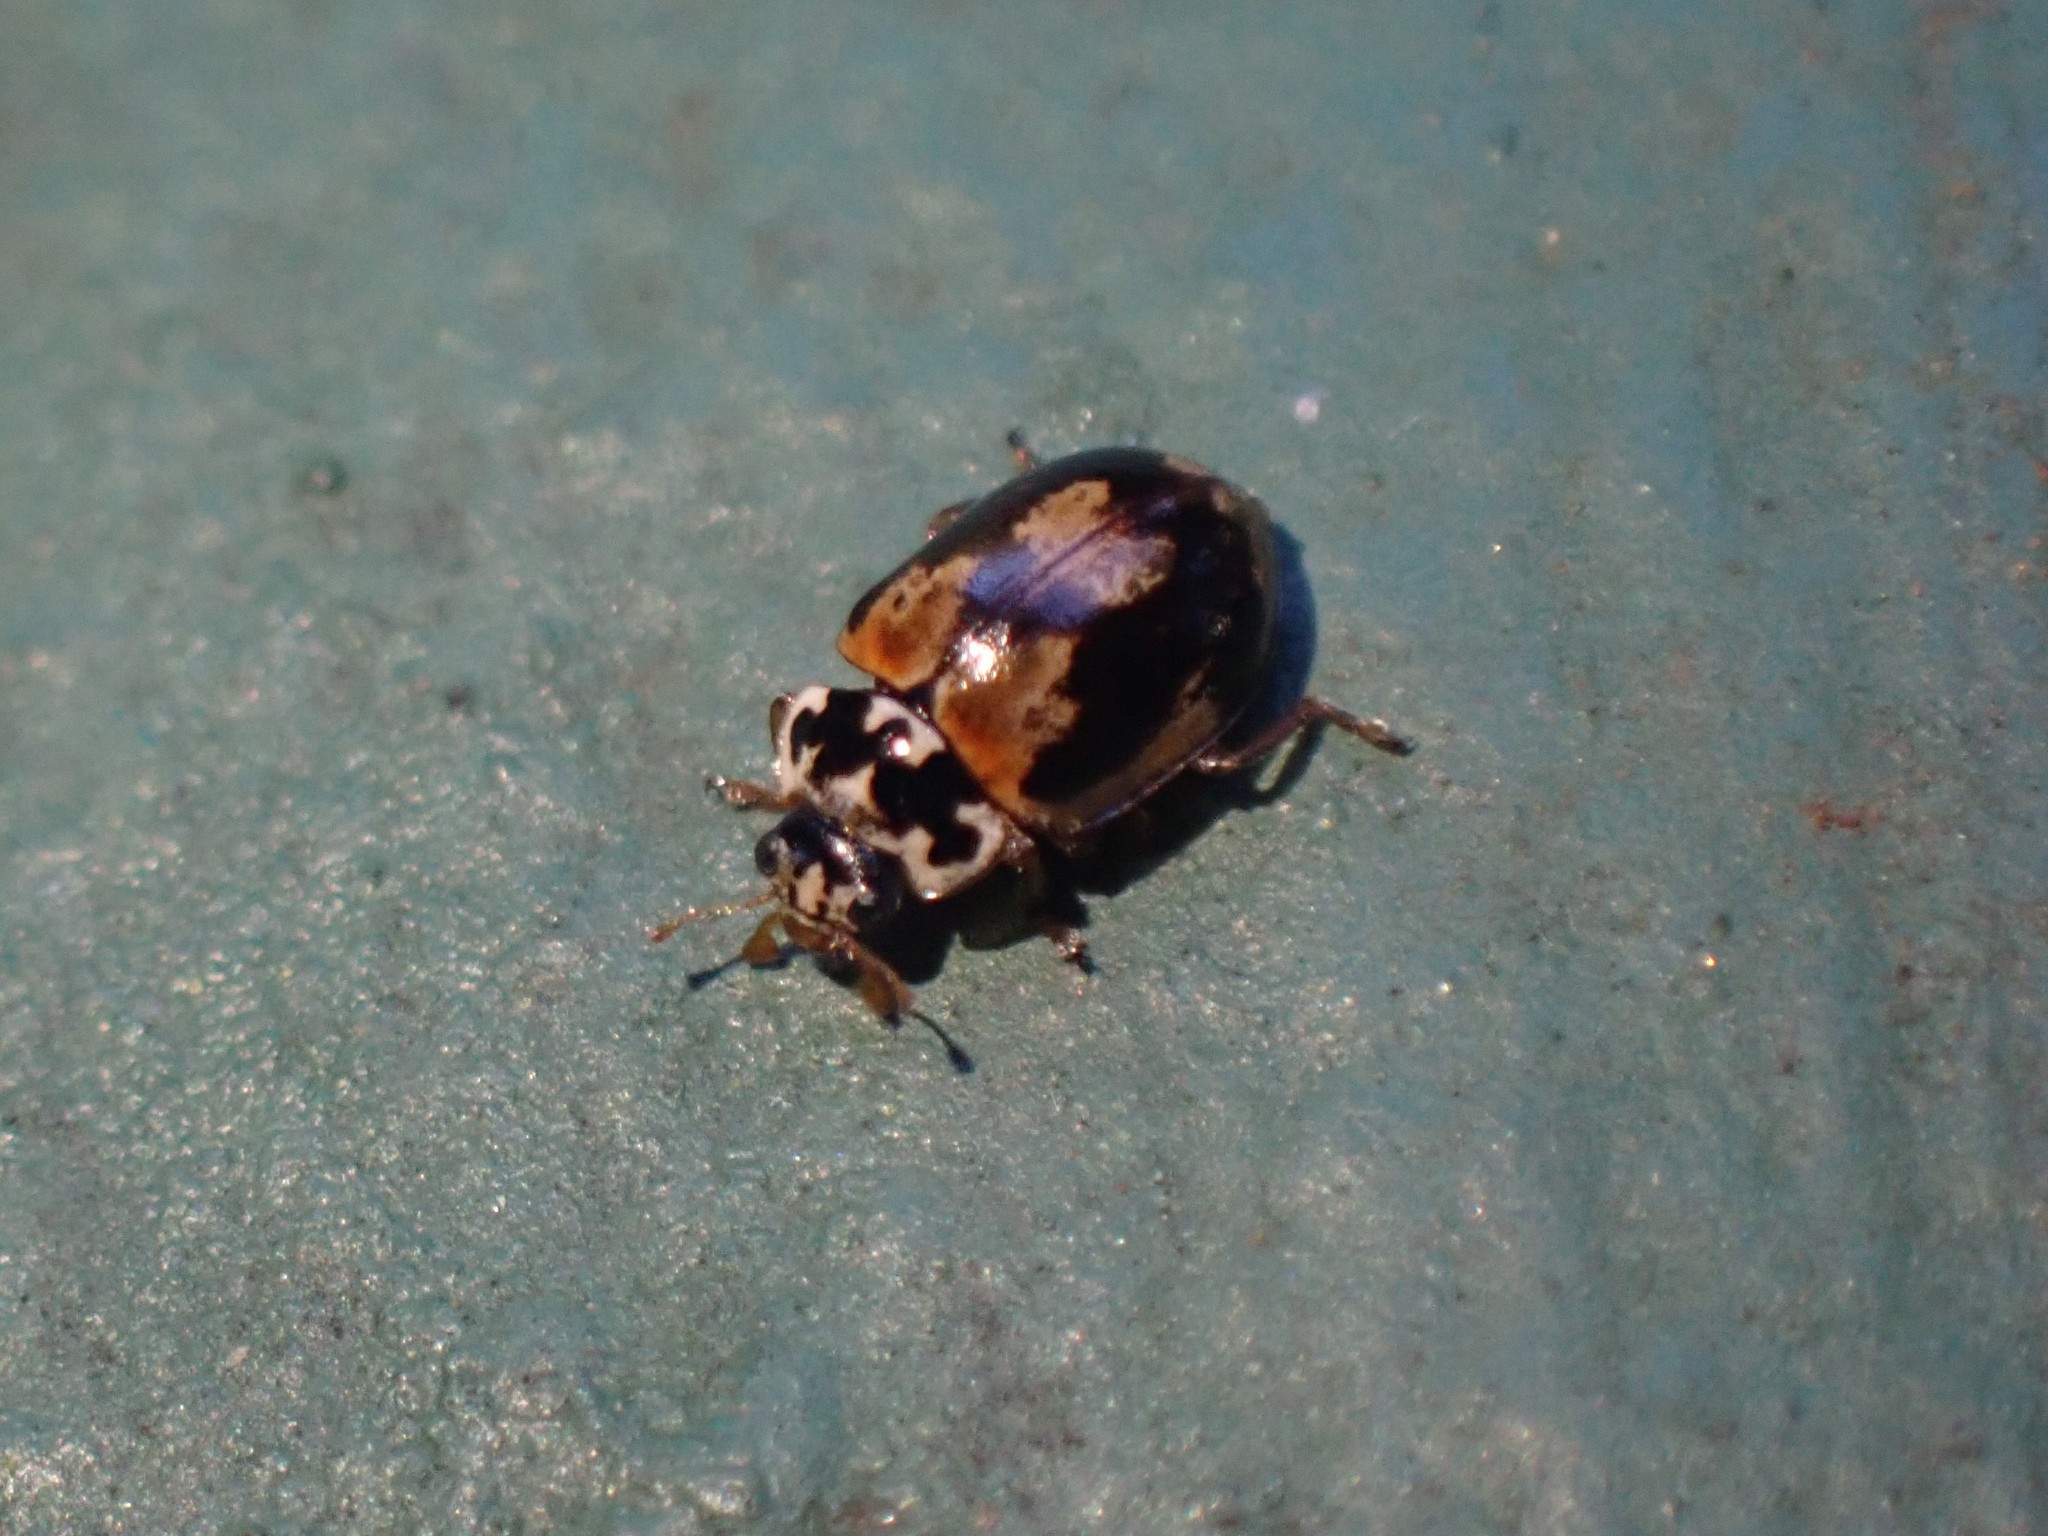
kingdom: Animalia
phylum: Arthropoda
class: Insecta
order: Coleoptera
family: Coccinellidae
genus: Mulsantina
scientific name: Mulsantina picta
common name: Painted ladybird
